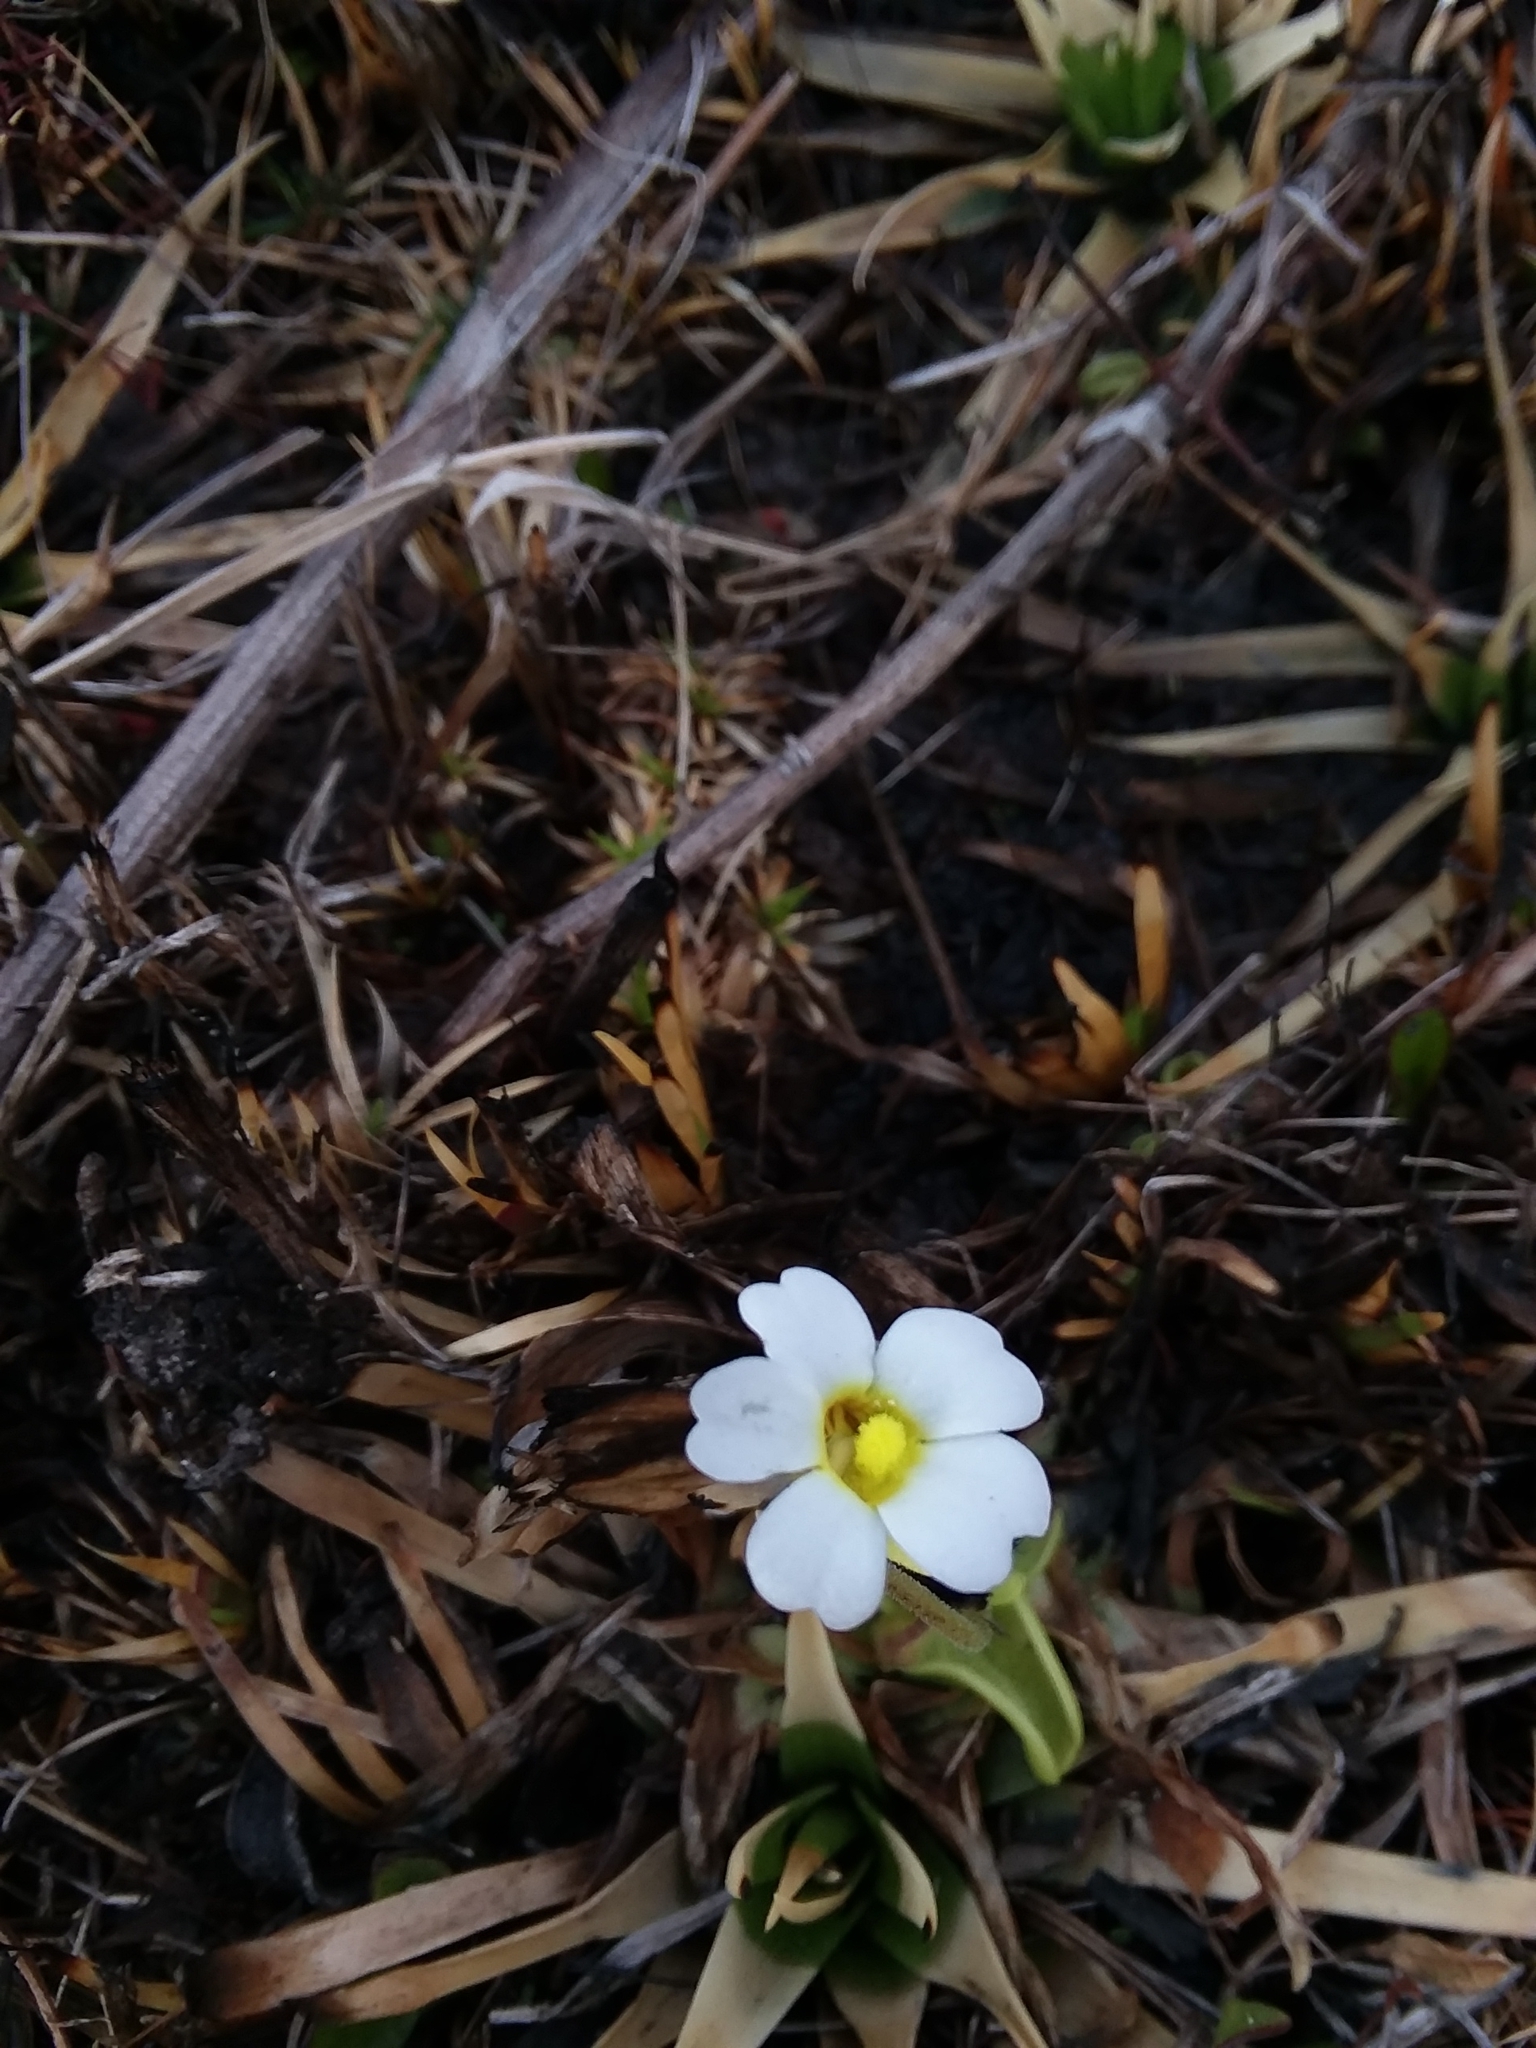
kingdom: Plantae
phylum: Tracheophyta
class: Magnoliopsida
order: Lamiales
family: Lentibulariaceae
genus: Pinguicula
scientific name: Pinguicula primuliflora
